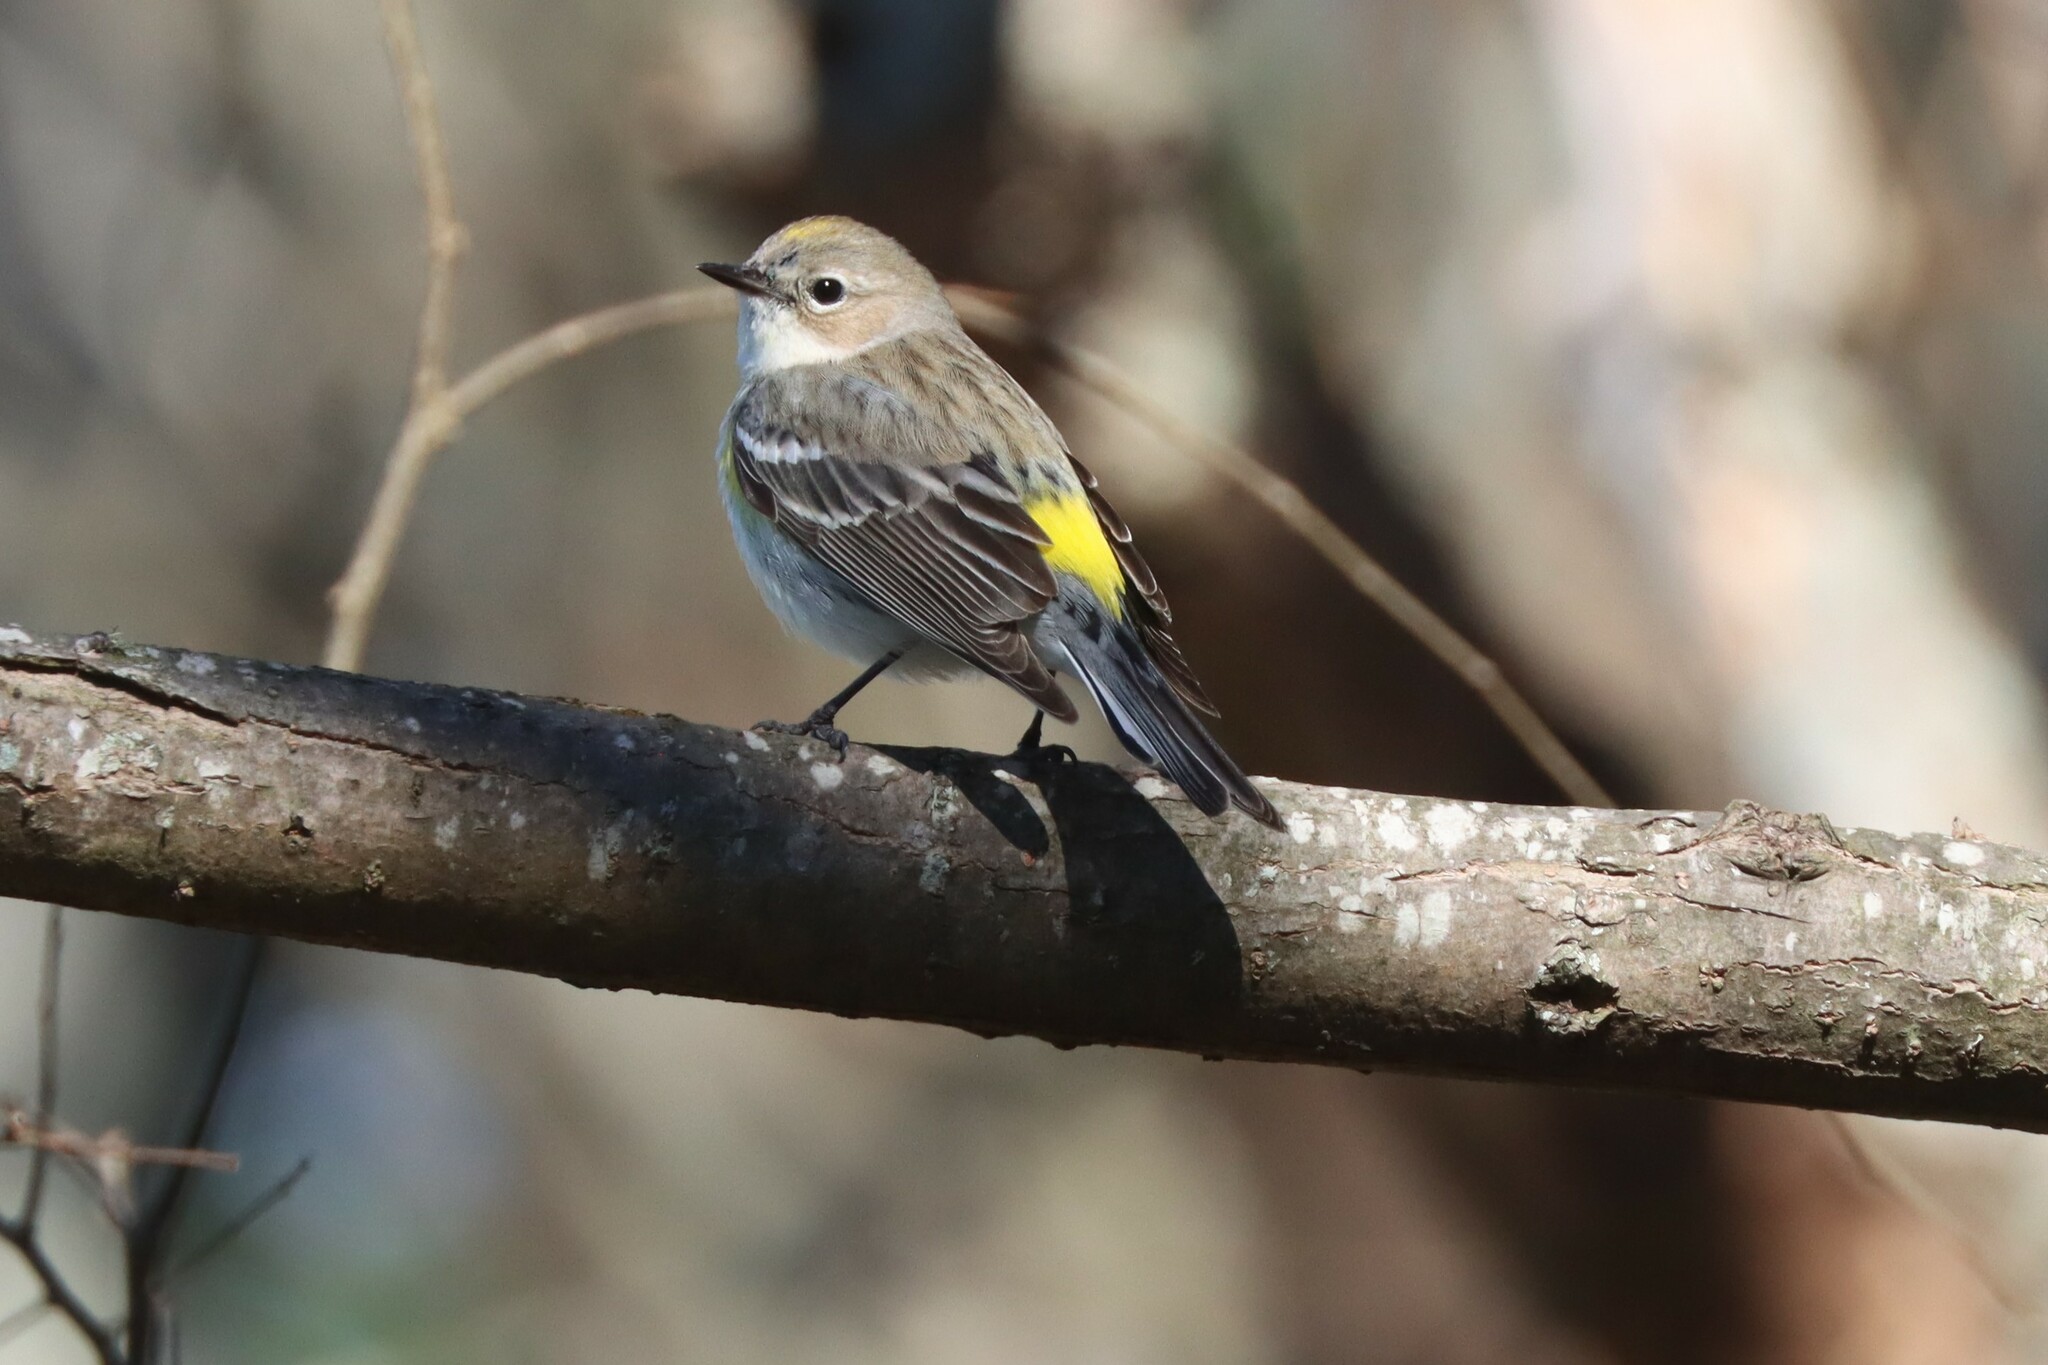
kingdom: Animalia
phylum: Chordata
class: Aves
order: Passeriformes
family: Parulidae
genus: Setophaga
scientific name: Setophaga coronata
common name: Myrtle warbler
